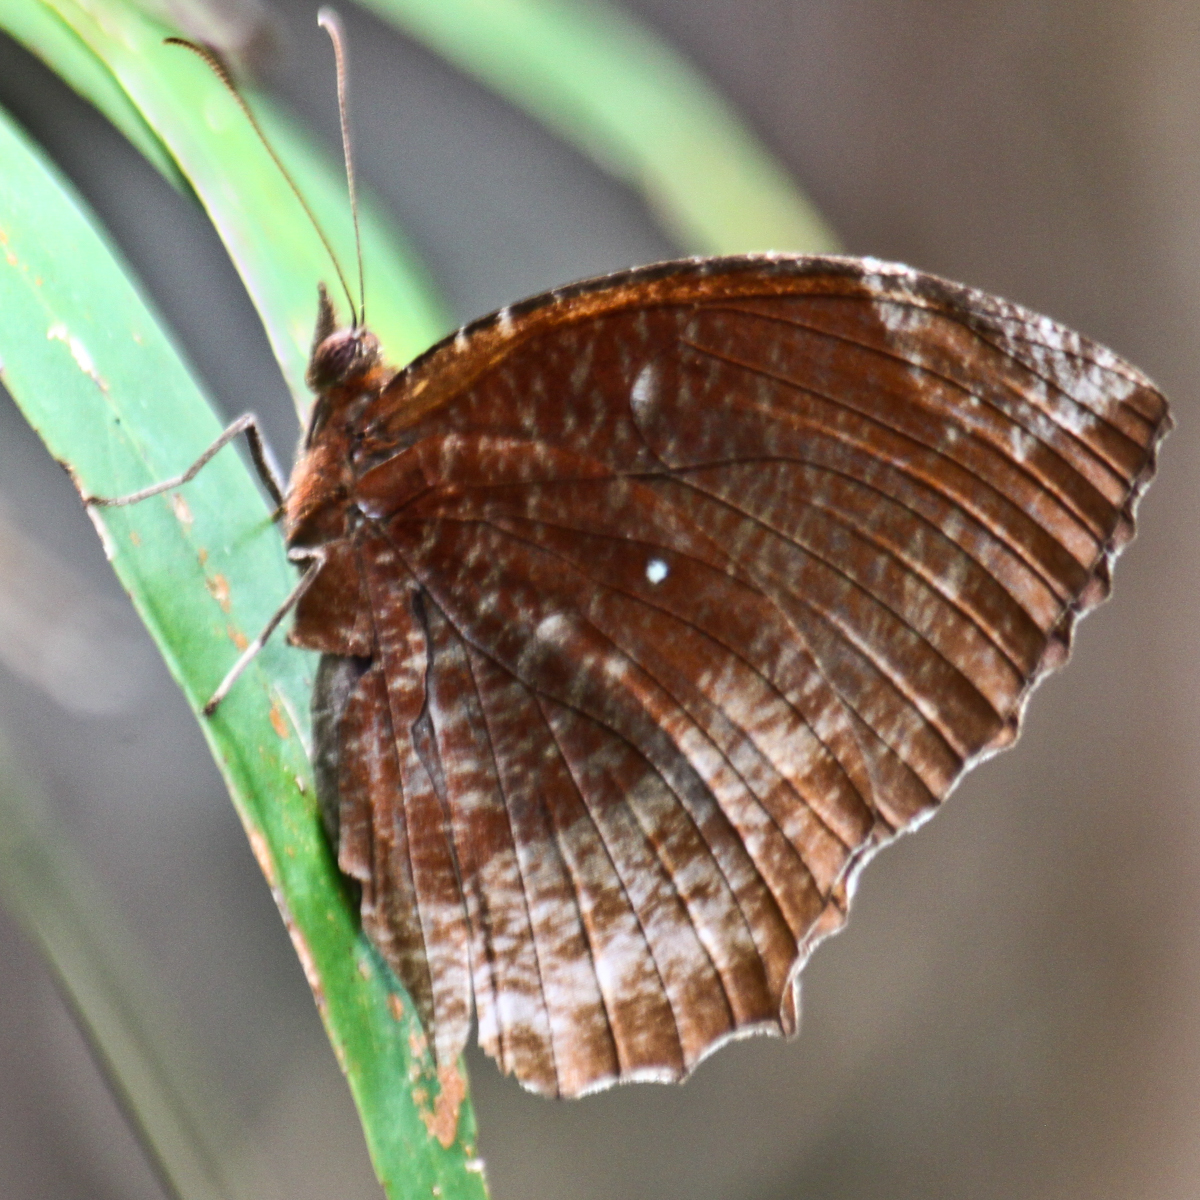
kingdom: Animalia
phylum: Arthropoda
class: Insecta
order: Lepidoptera
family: Nymphalidae
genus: Elymnias
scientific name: Elymnias hypermnestra
